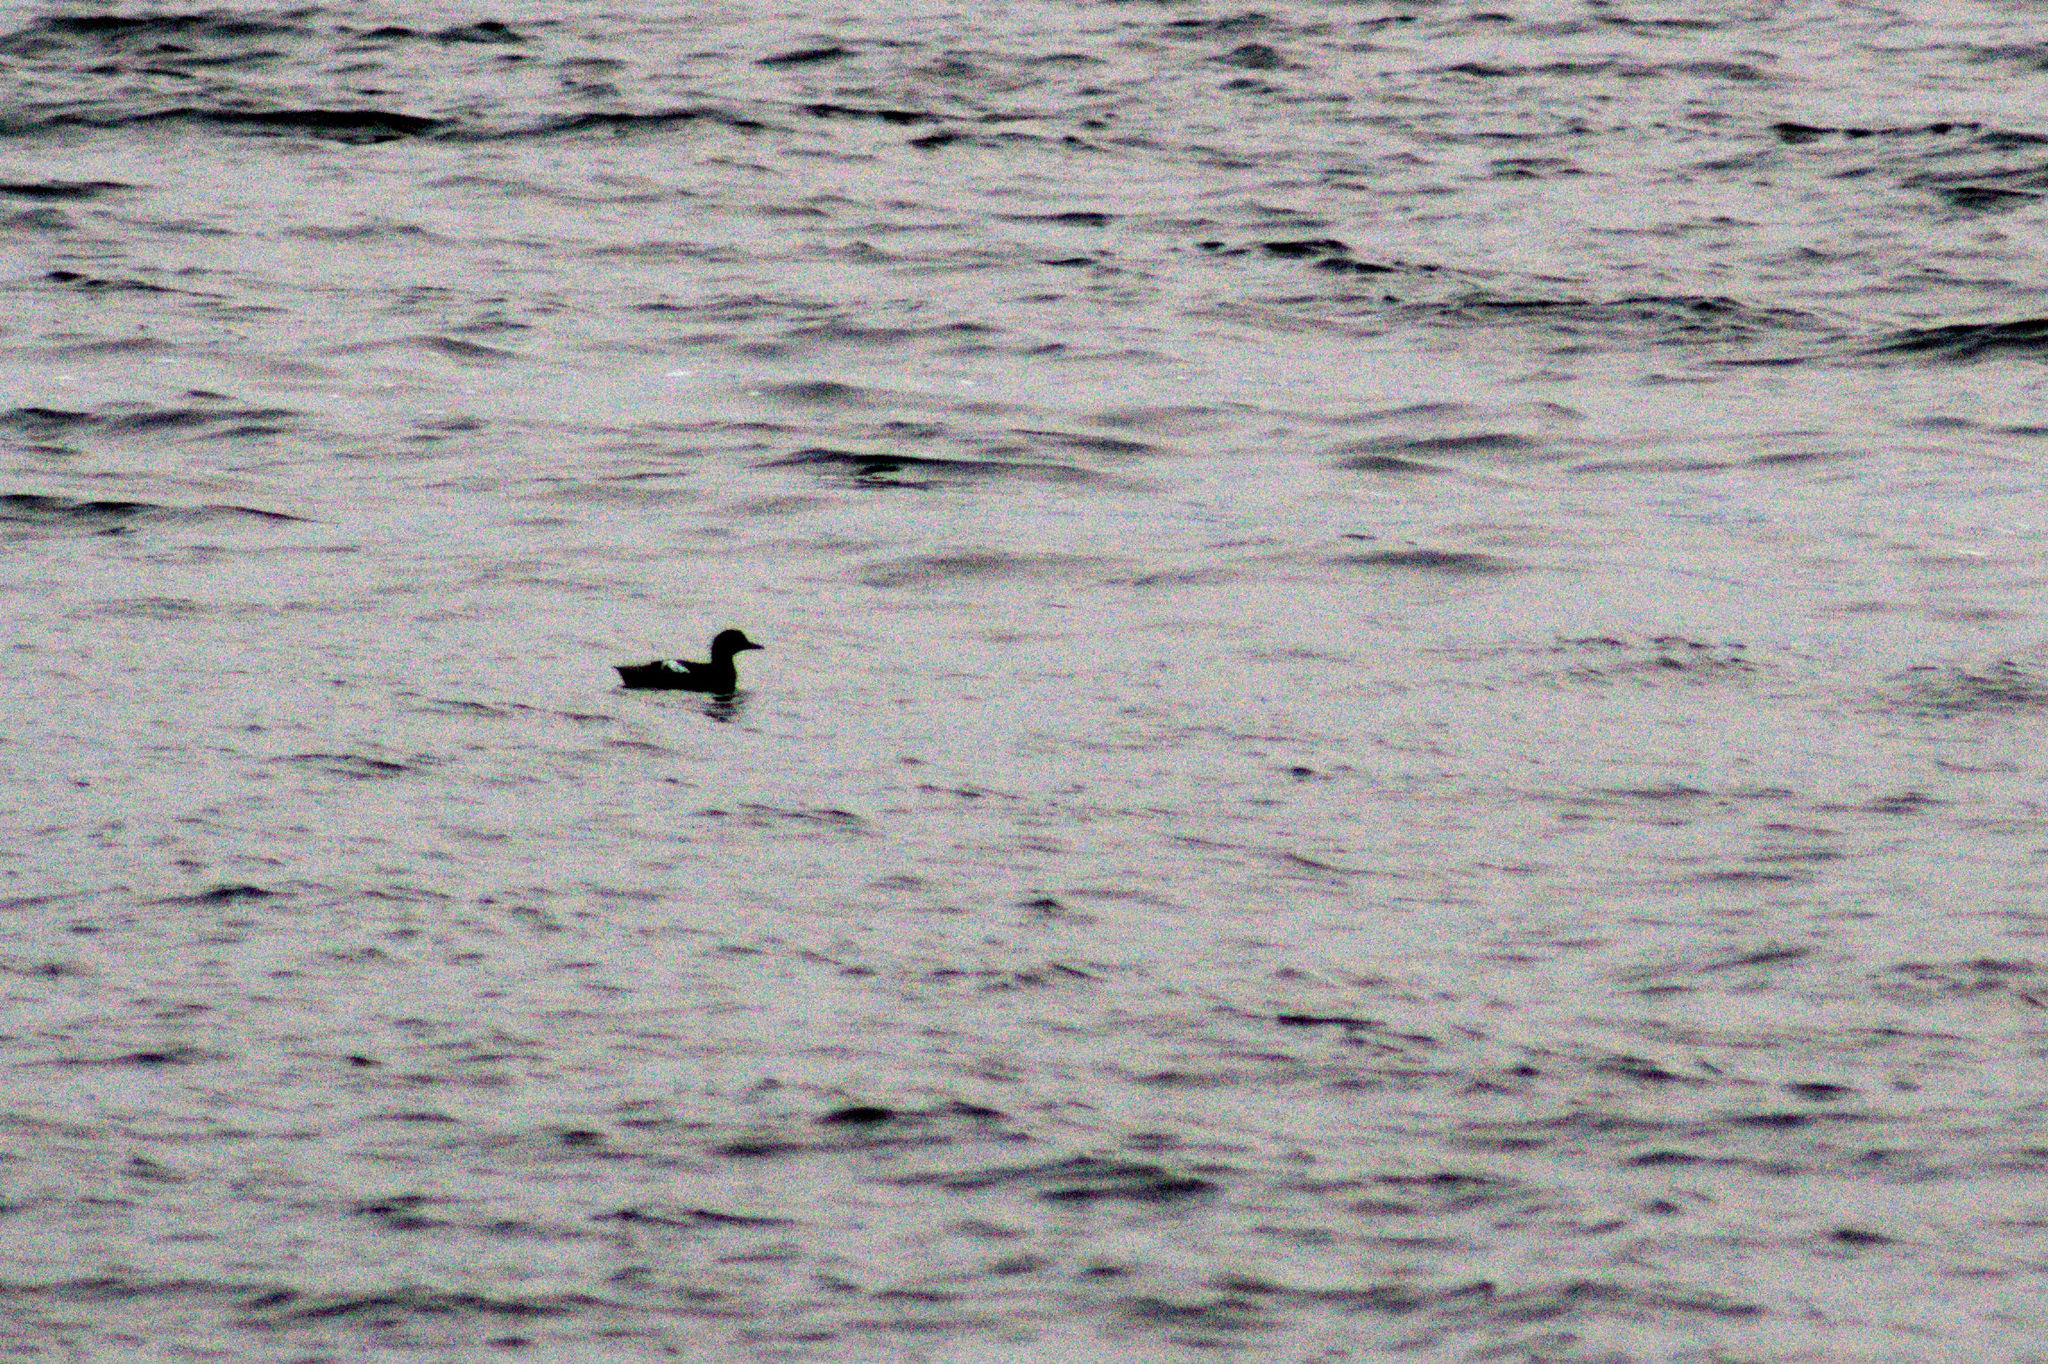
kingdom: Animalia
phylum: Chordata
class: Aves
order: Charadriiformes
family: Alcidae
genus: Cepphus
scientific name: Cepphus columba
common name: Pigeon guillemot
